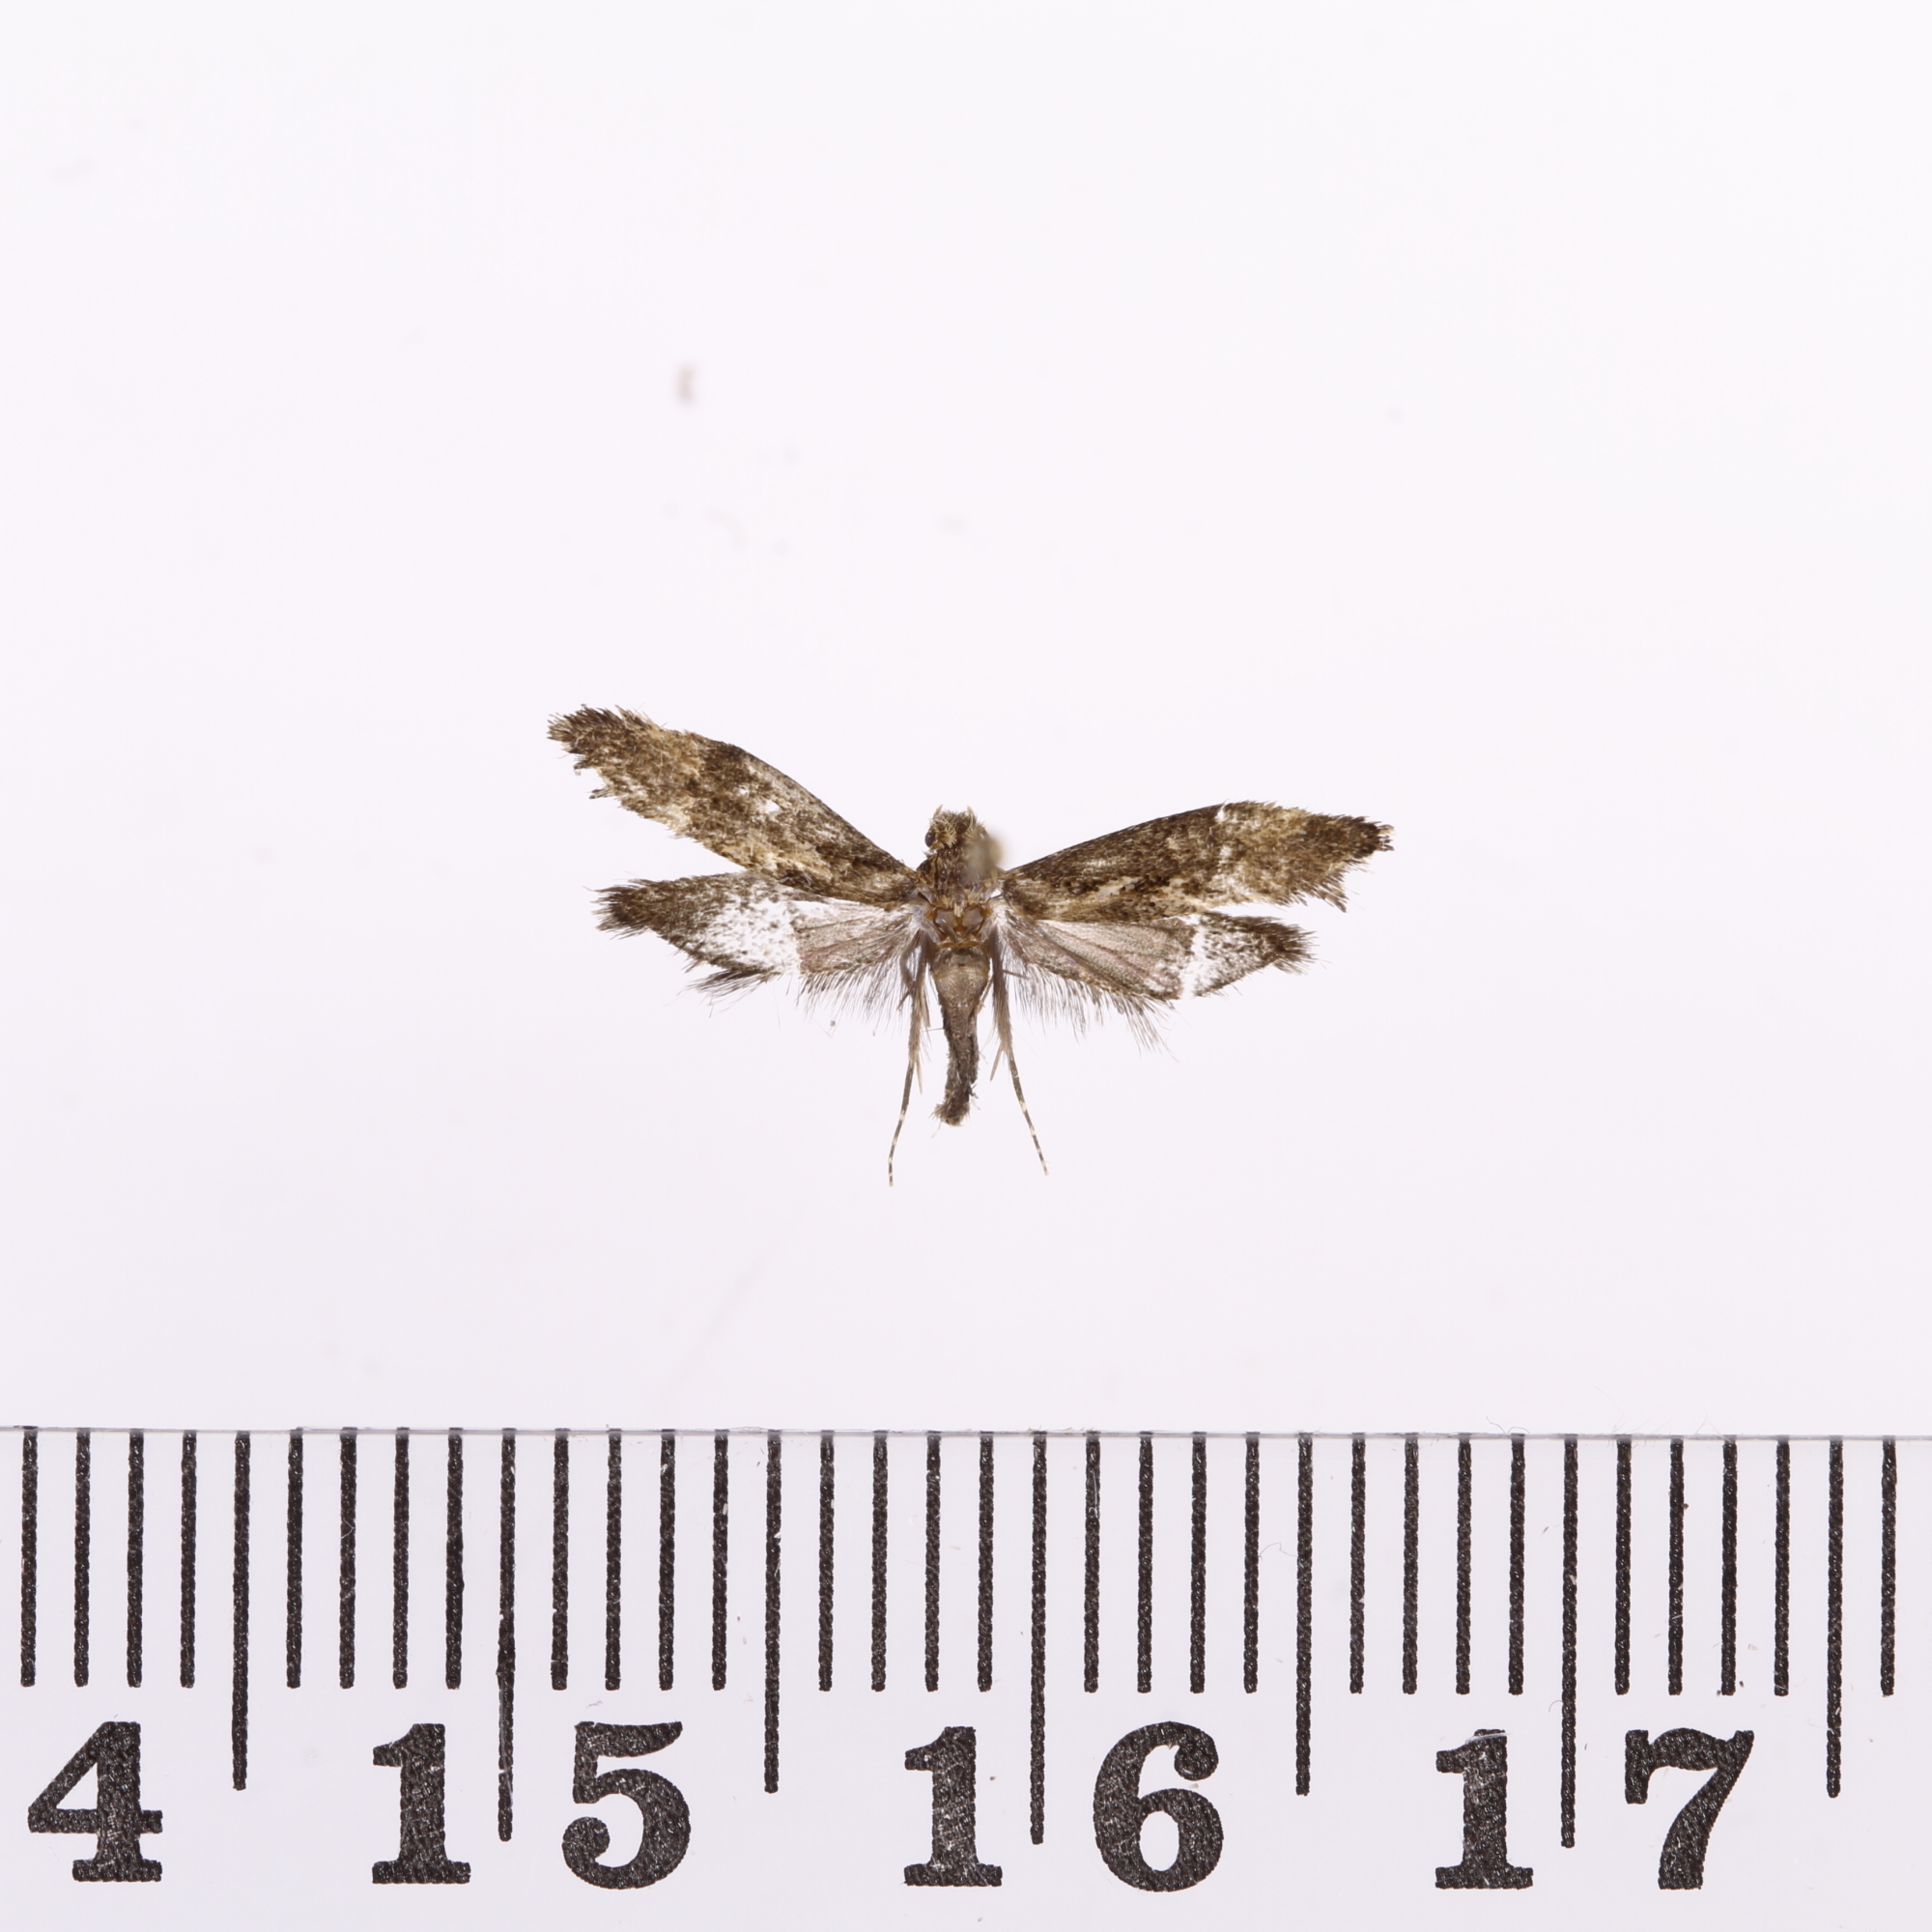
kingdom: Animalia
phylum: Arthropoda
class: Insecta
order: Lepidoptera
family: Tineidae
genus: Trithamnora
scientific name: Trithamnora certella
